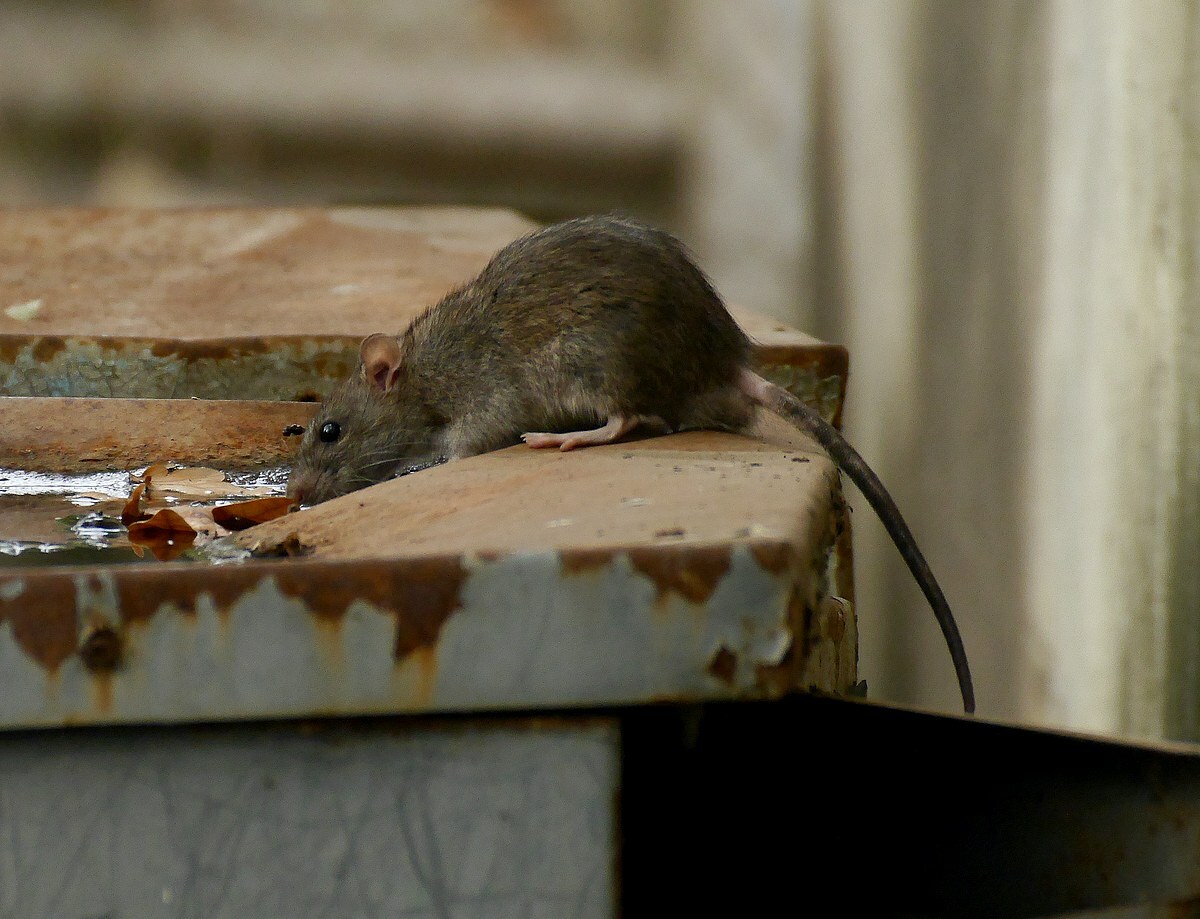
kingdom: Animalia
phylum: Chordata
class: Mammalia
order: Rodentia
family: Muridae
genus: Rattus
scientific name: Rattus norvegicus
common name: Brown rat
